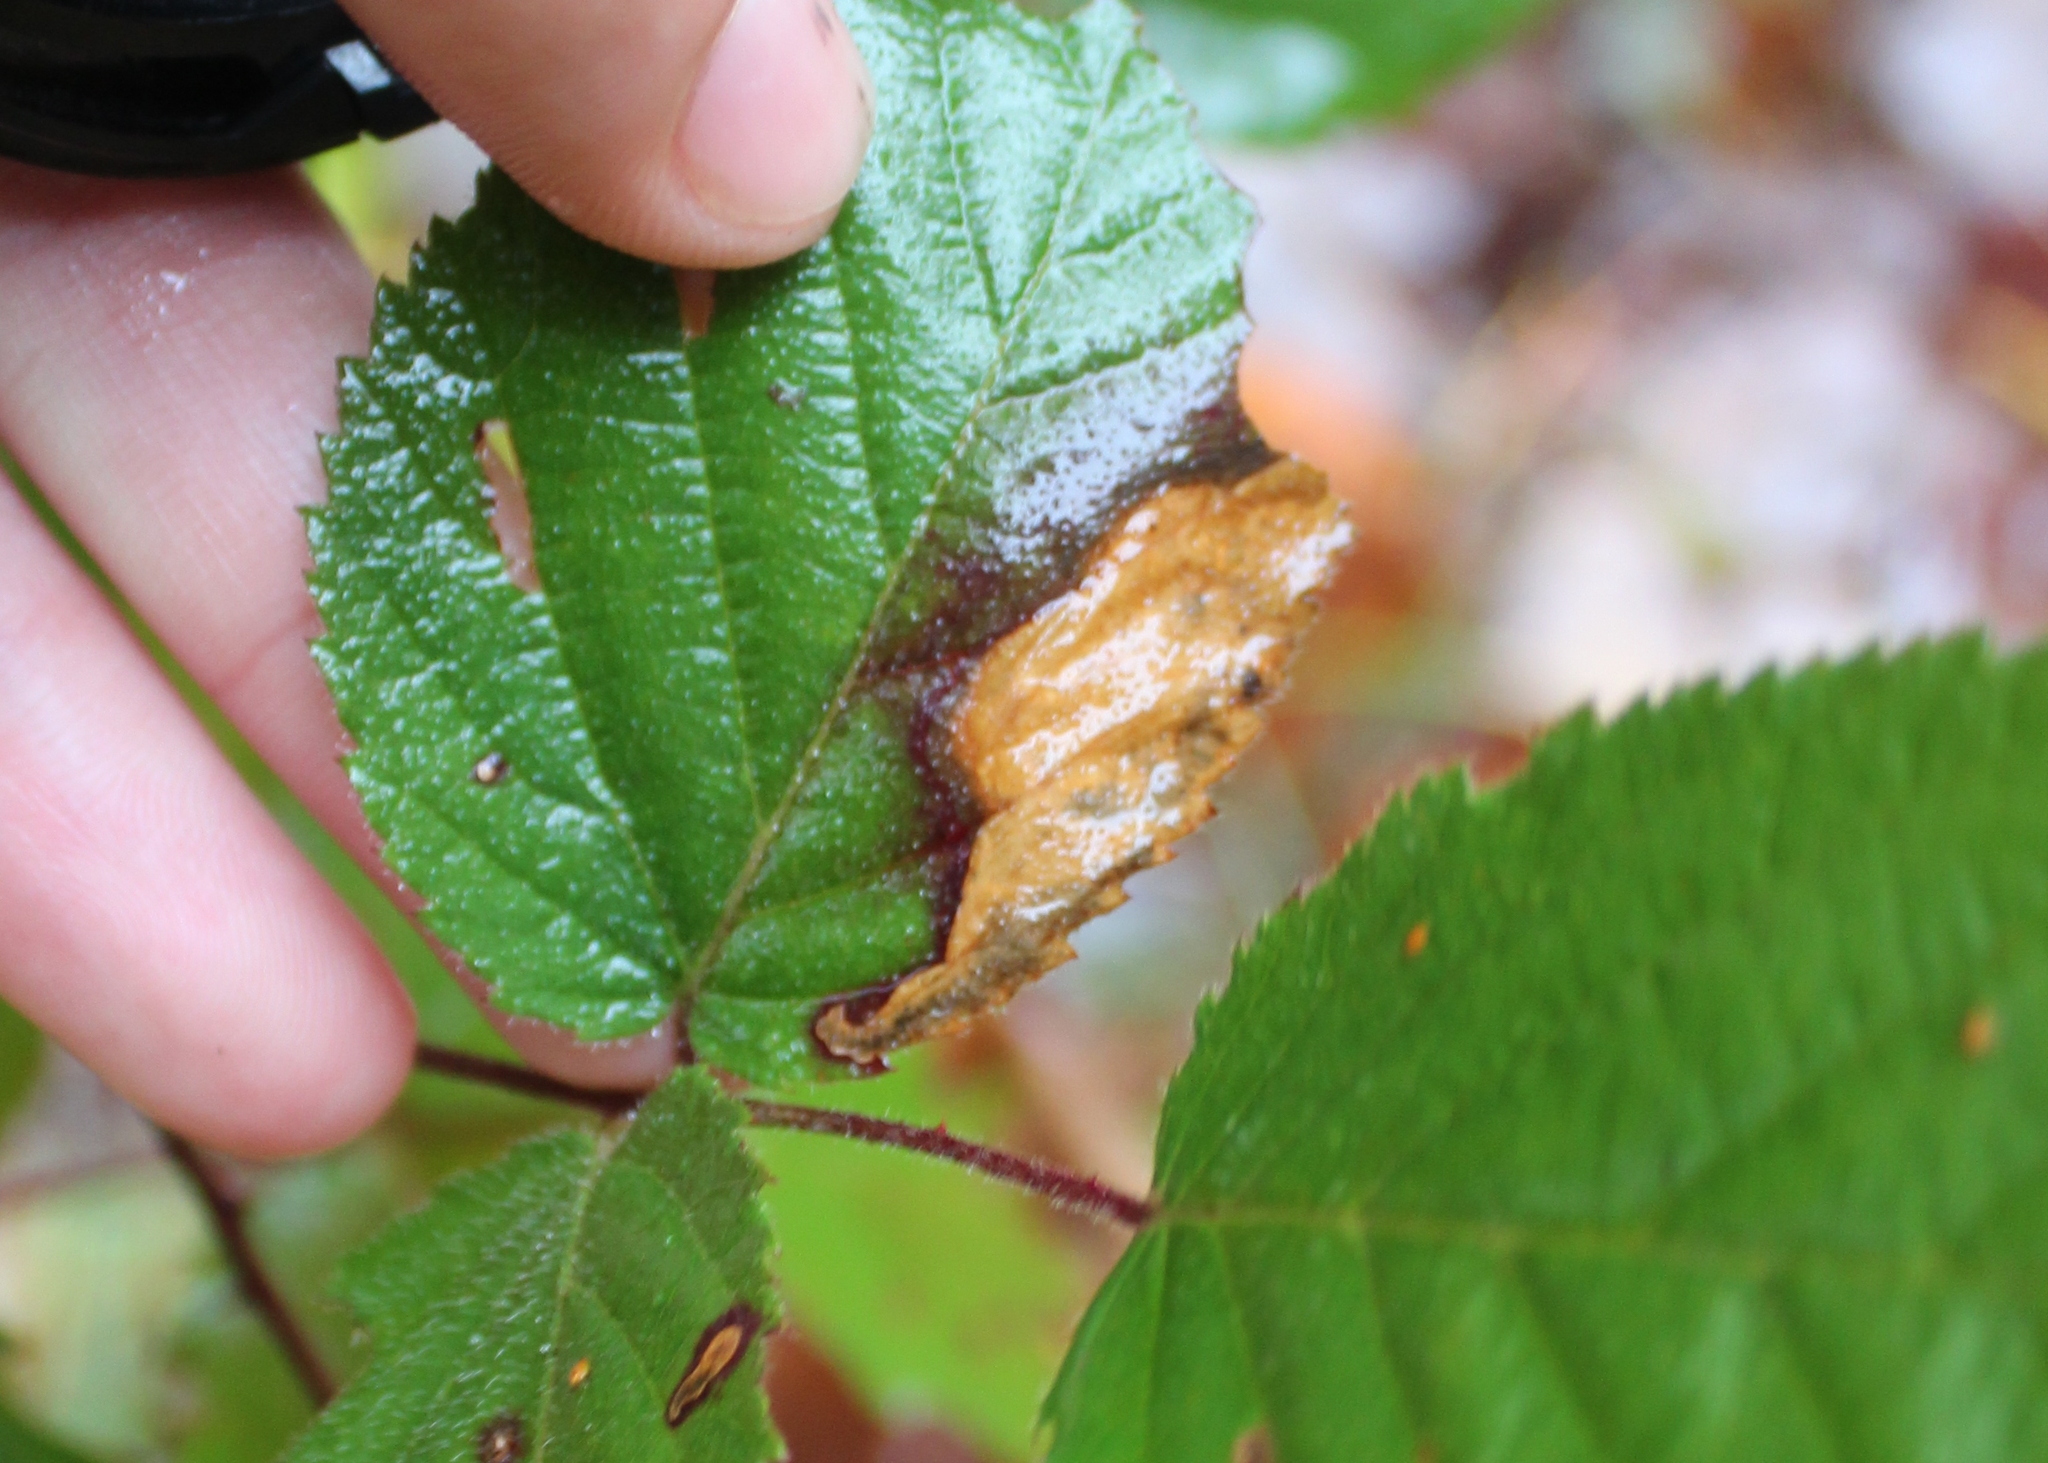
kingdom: Animalia
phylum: Arthropoda
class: Insecta
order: Hymenoptera
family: Tenthredinidae
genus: Metallus
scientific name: Metallus rohweri
